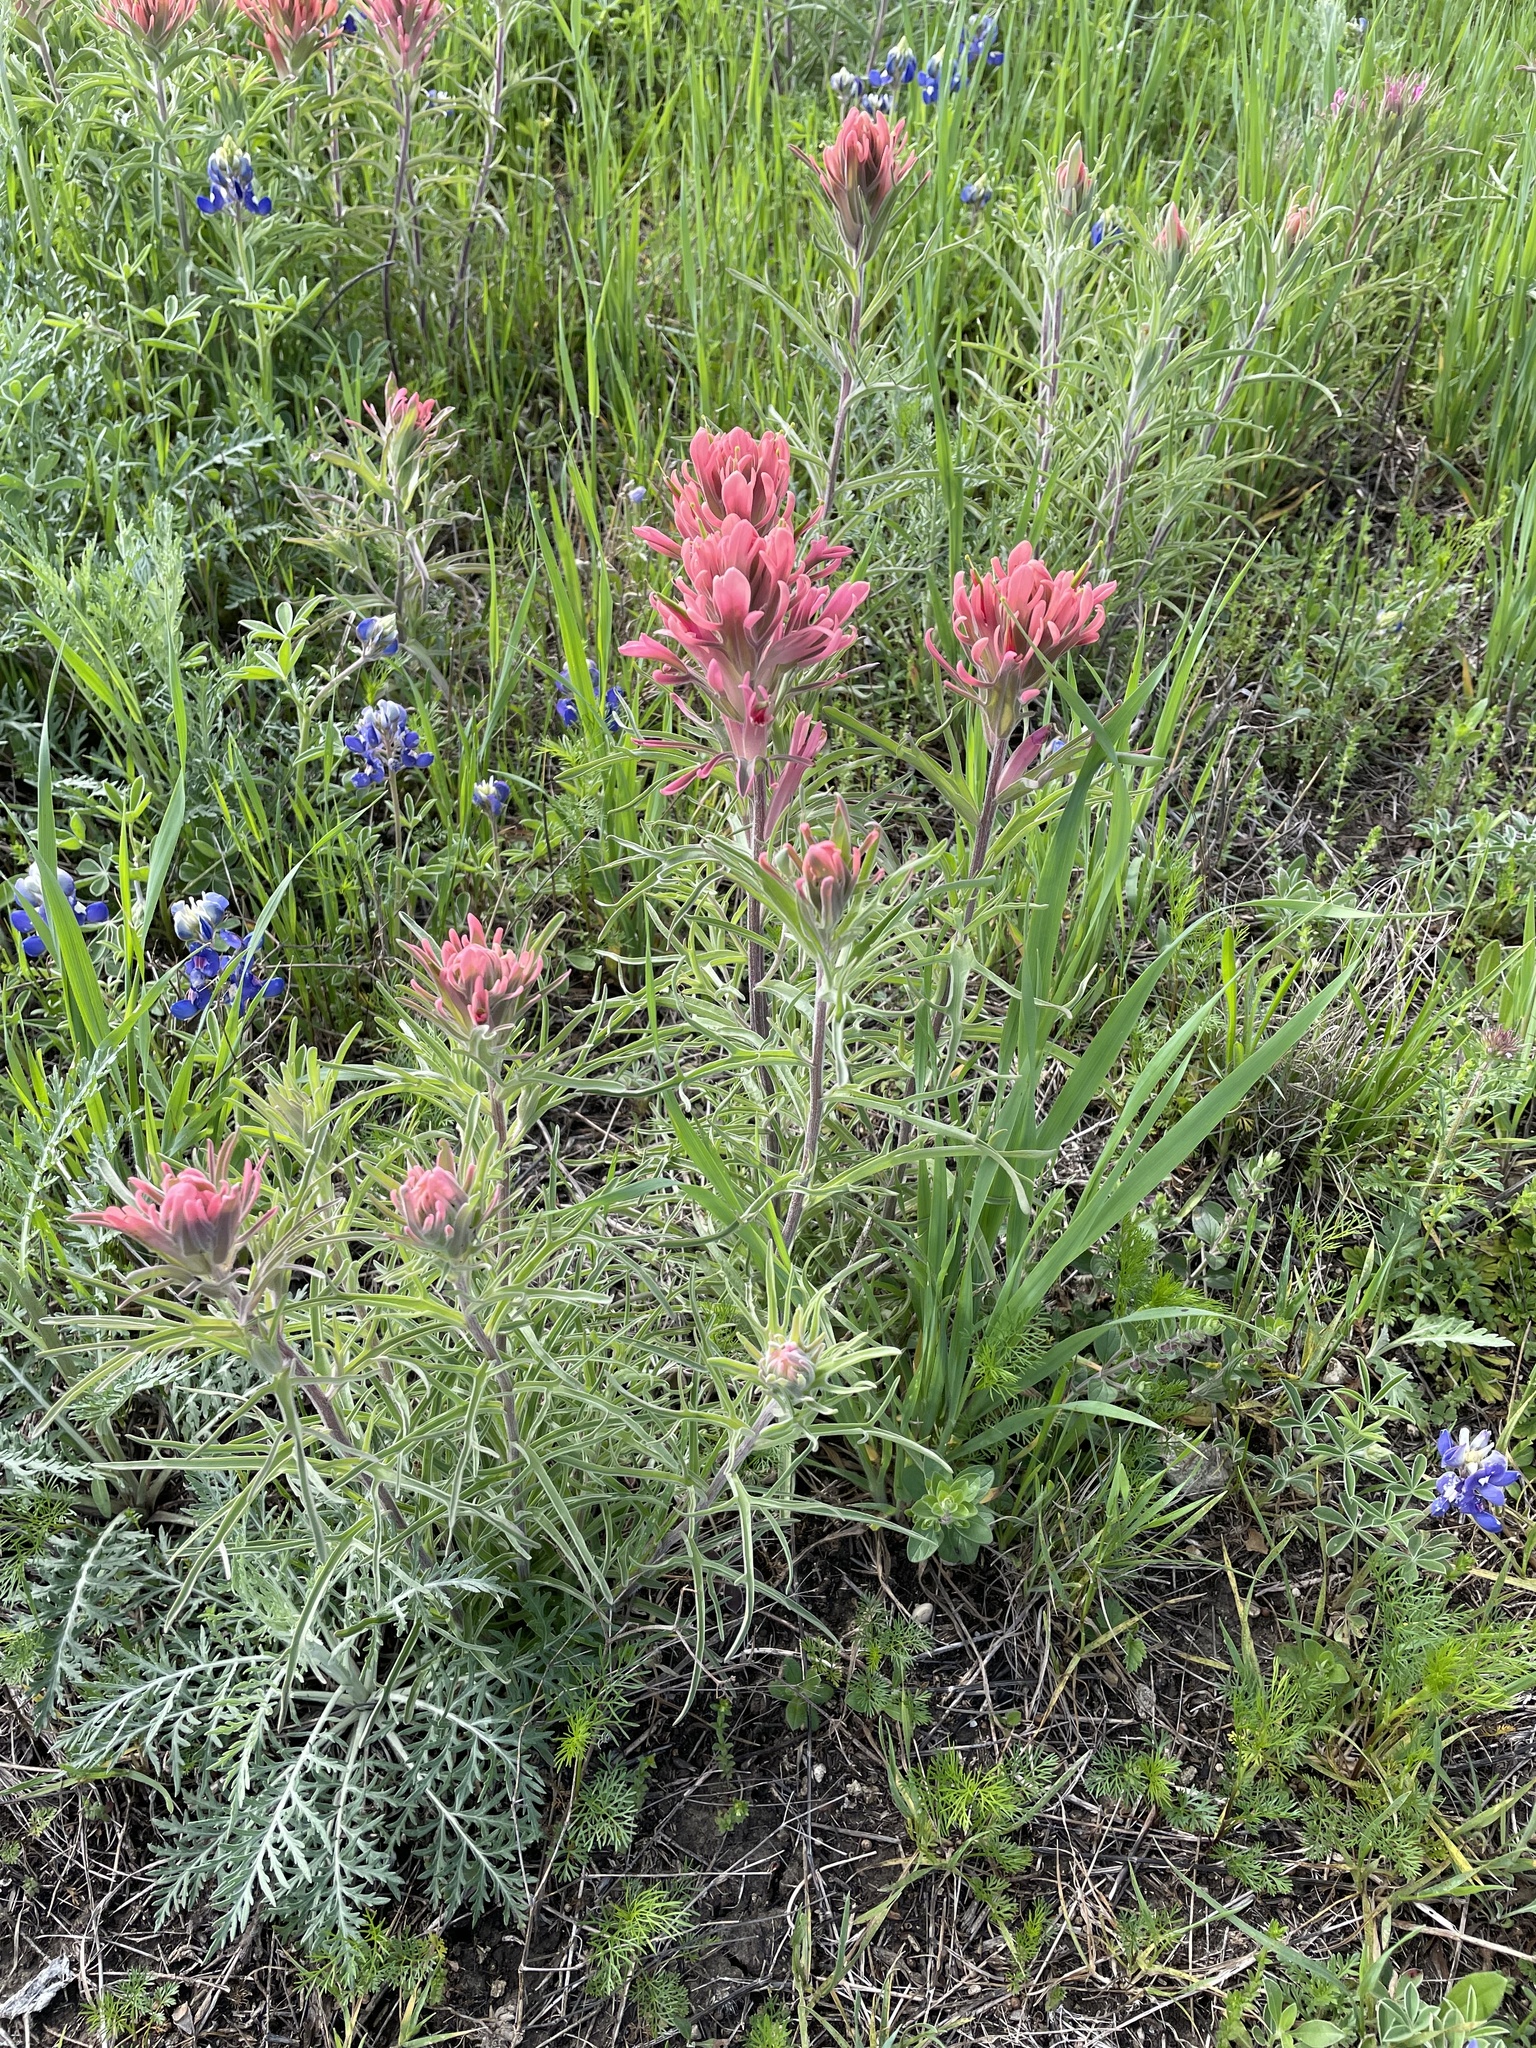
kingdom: Plantae
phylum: Tracheophyta
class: Magnoliopsida
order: Lamiales
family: Orobanchaceae
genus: Castilleja
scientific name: Castilleja purpurea
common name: Plains paintbrush
